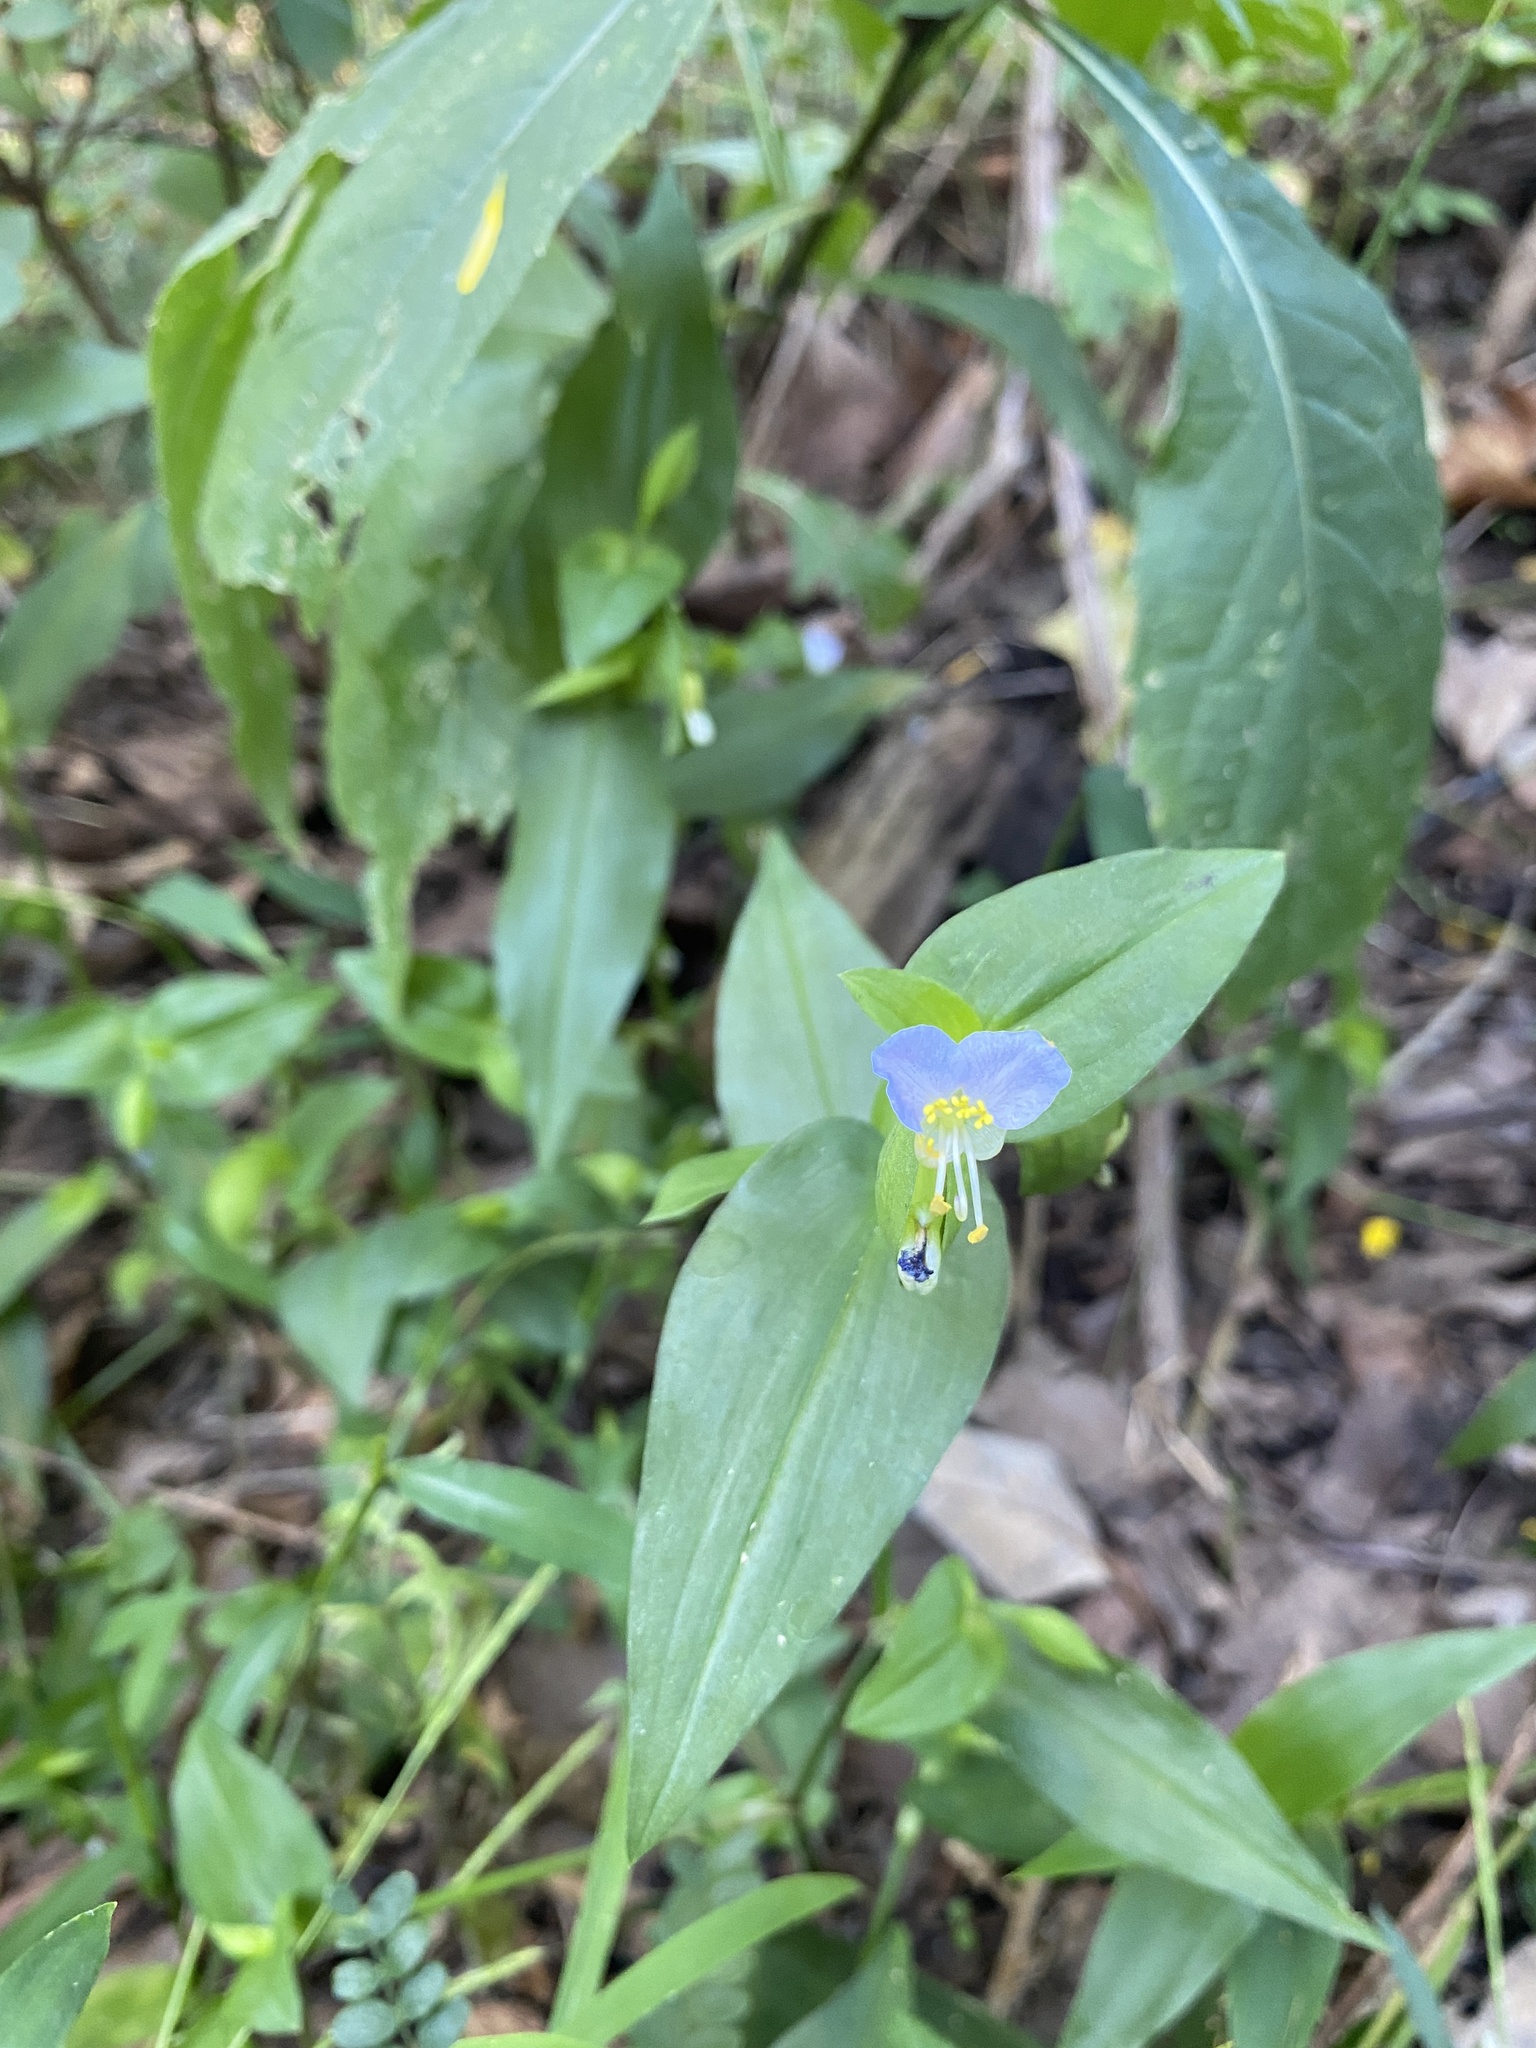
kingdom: Plantae
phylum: Tracheophyta
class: Liliopsida
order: Commelinales
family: Commelinaceae
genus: Commelina
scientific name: Commelina communis
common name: Asiatic dayflower
